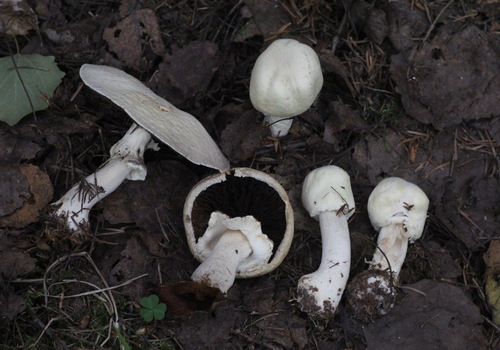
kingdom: Fungi
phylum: Basidiomycota
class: Agaricomycetes
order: Agaricales
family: Agaricaceae
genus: Agaricus
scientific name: Agaricus sylvicola
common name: Wood mushroom
